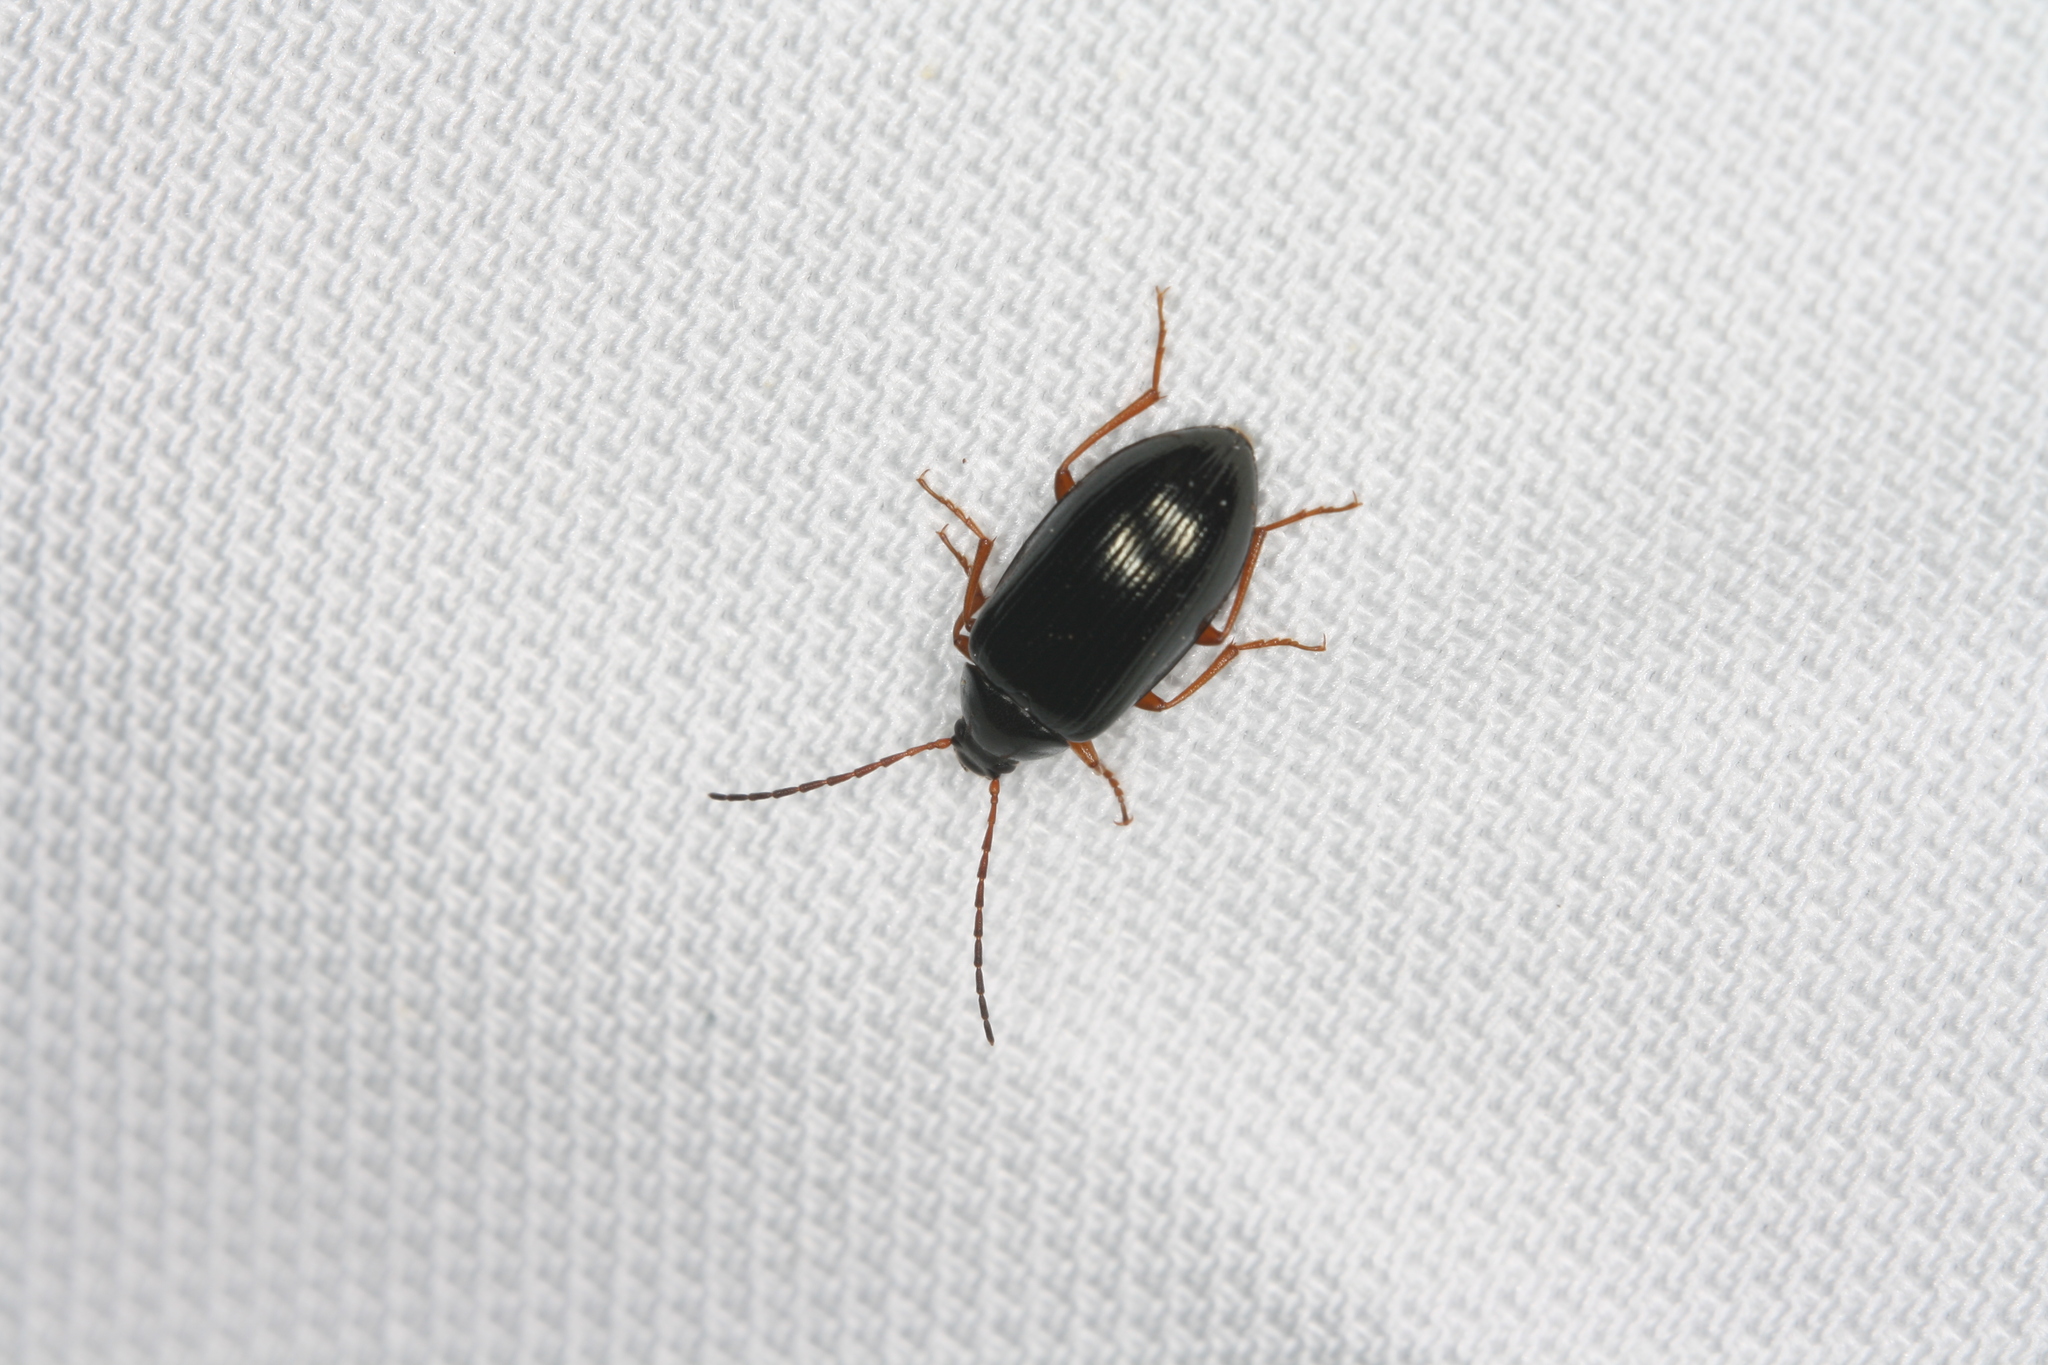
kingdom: Animalia
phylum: Arthropoda
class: Insecta
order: Coleoptera
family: Tenebrionidae
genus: Gonodera
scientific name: Gonodera luperus
